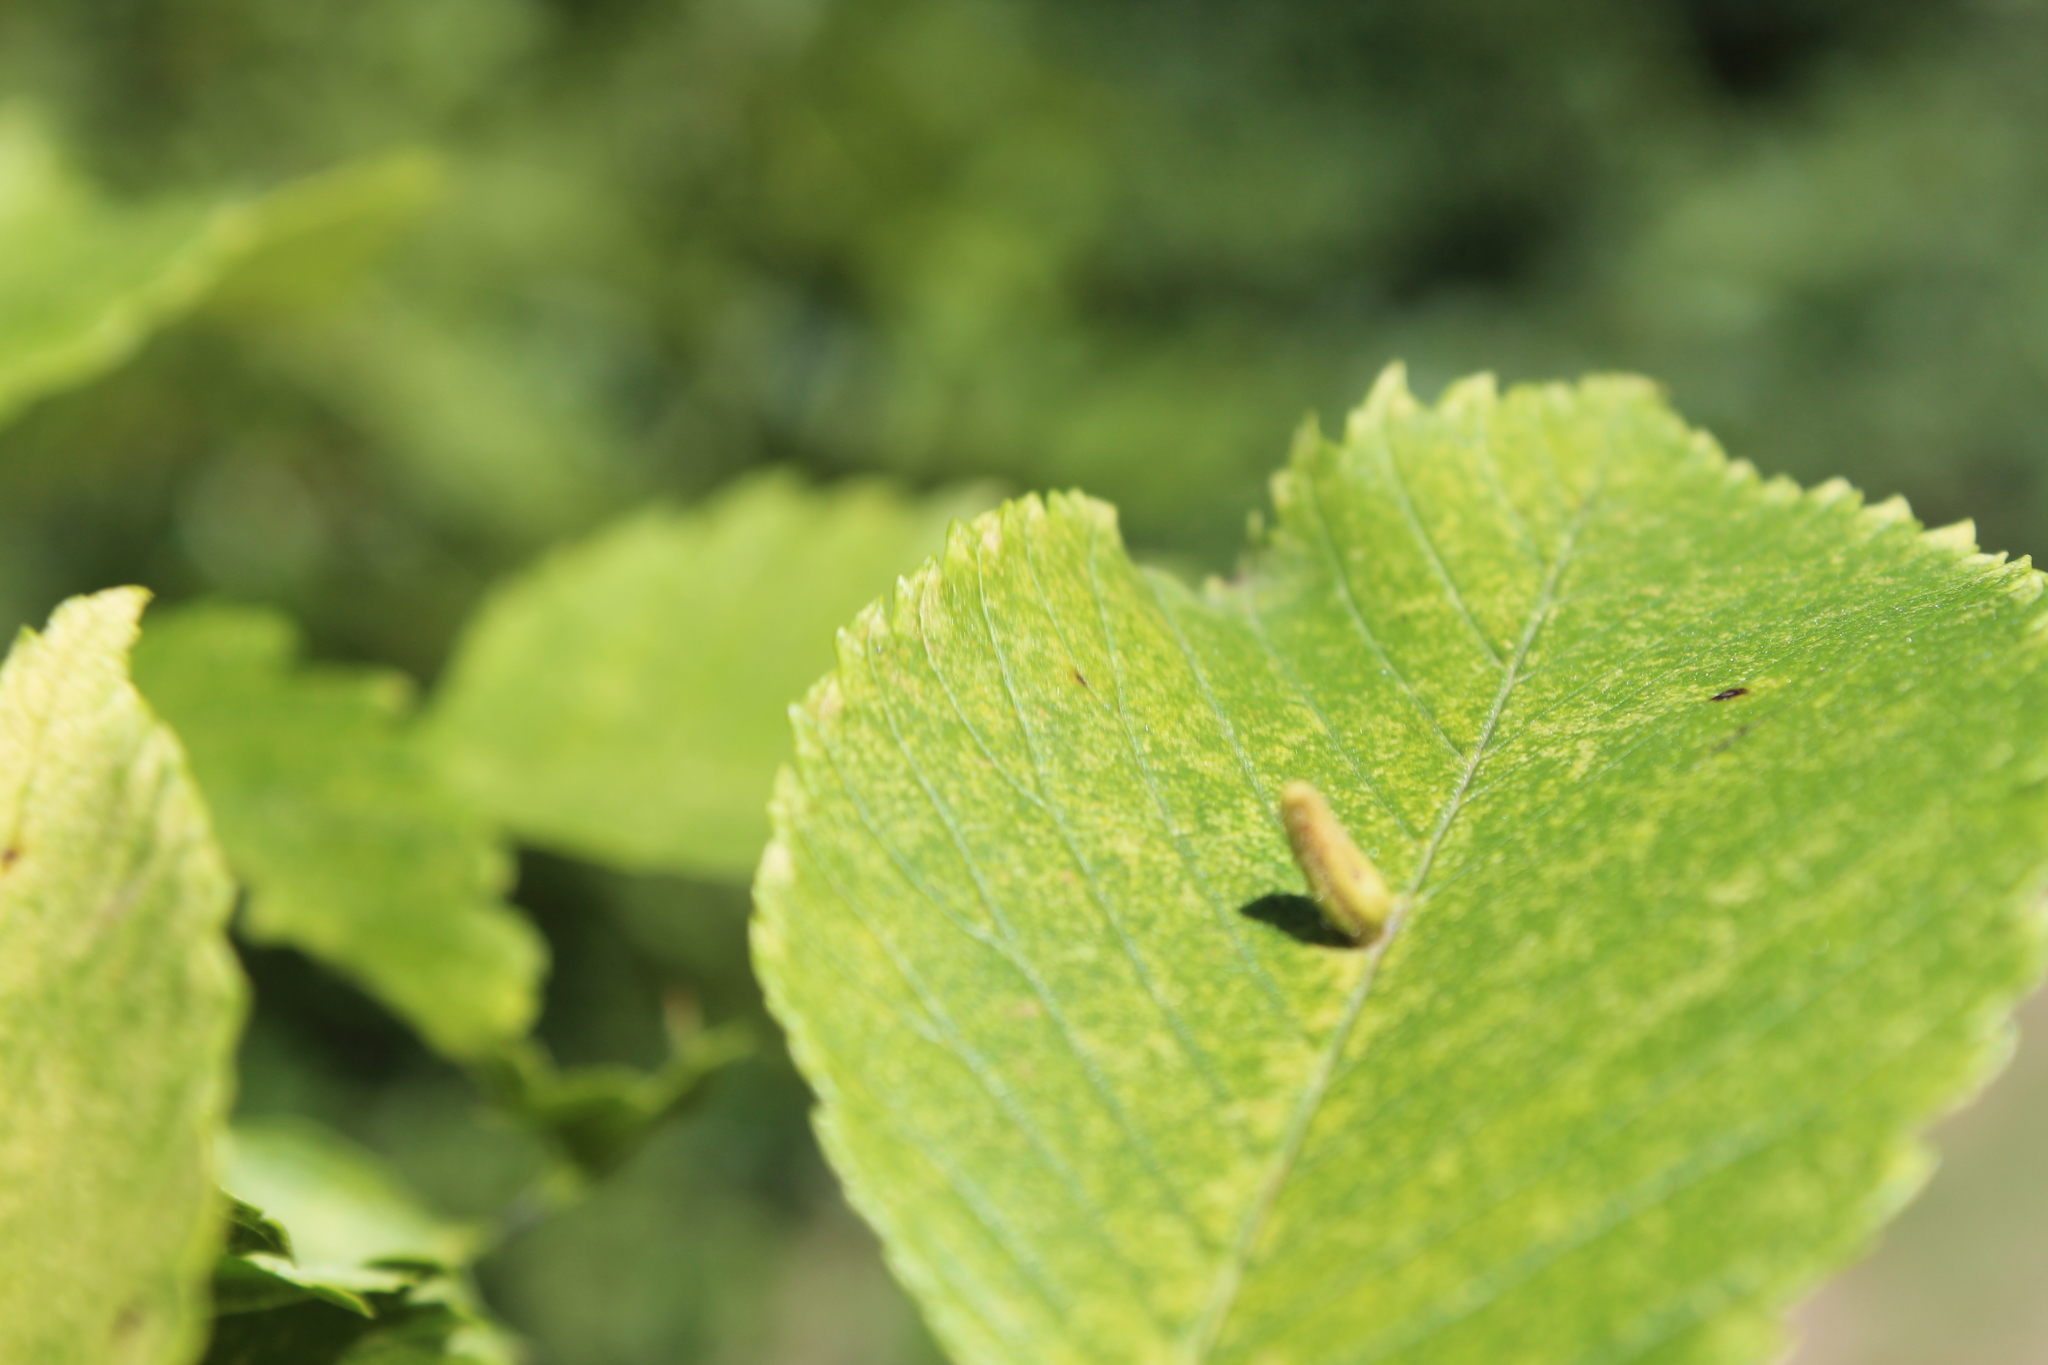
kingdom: Animalia
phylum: Arthropoda
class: Arachnida
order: Trombidiformes
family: Eriophyidae
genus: Aceria
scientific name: Aceria
